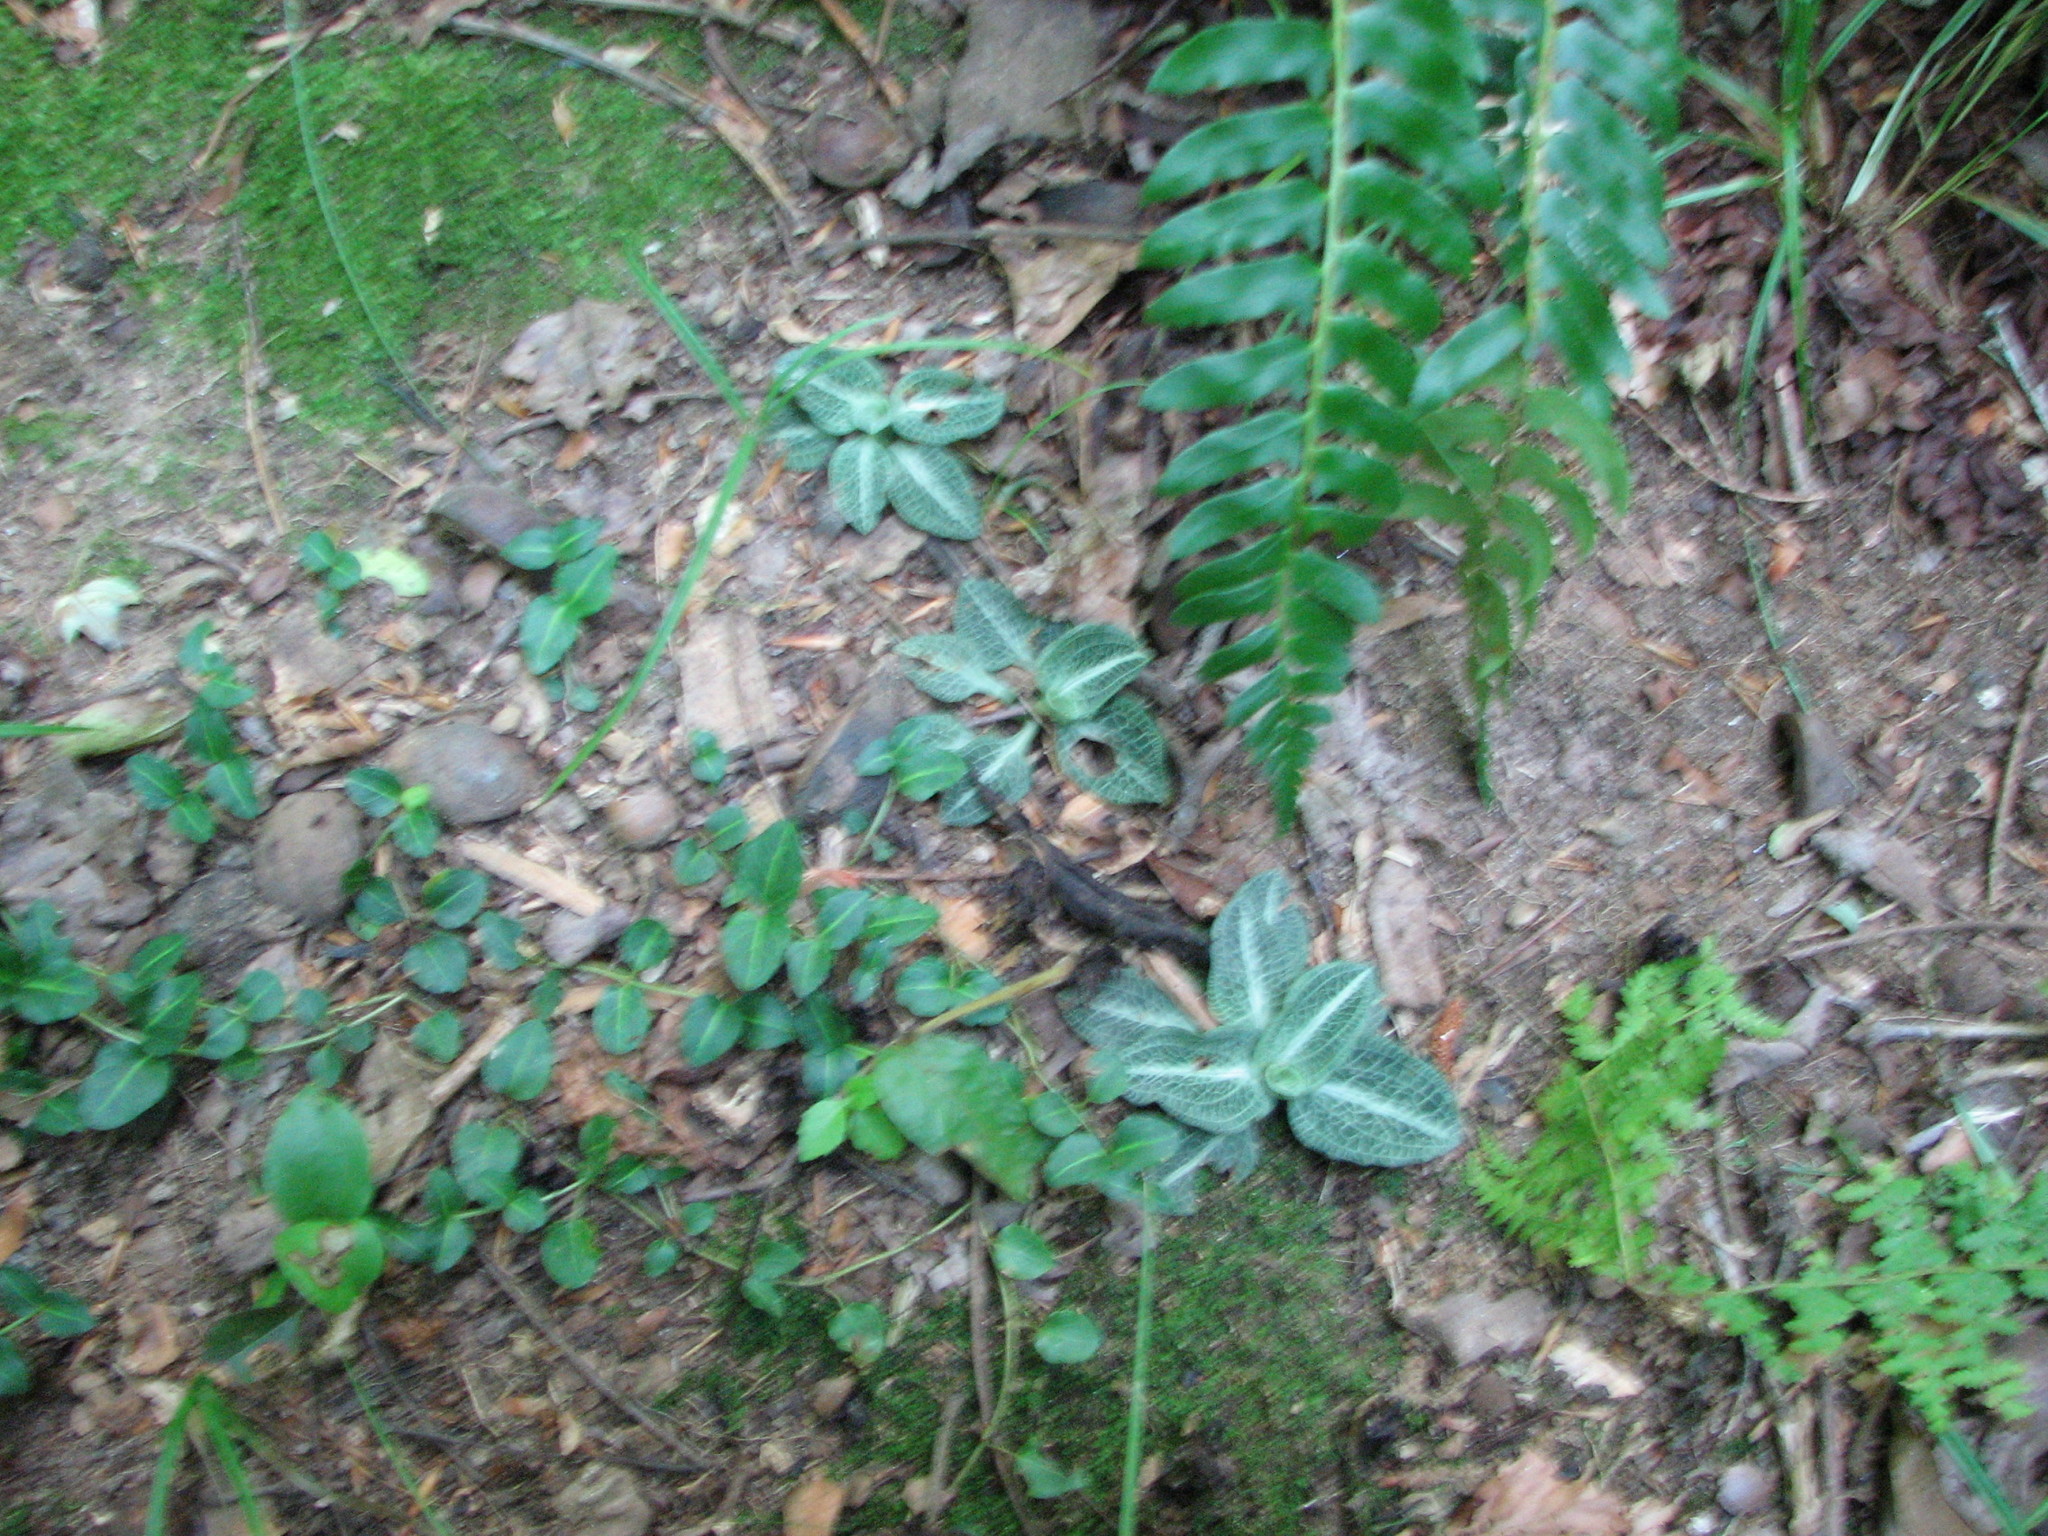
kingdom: Plantae
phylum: Tracheophyta
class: Magnoliopsida
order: Gentianales
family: Rubiaceae
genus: Mitchella
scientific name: Mitchella repens
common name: Partridge-berry
